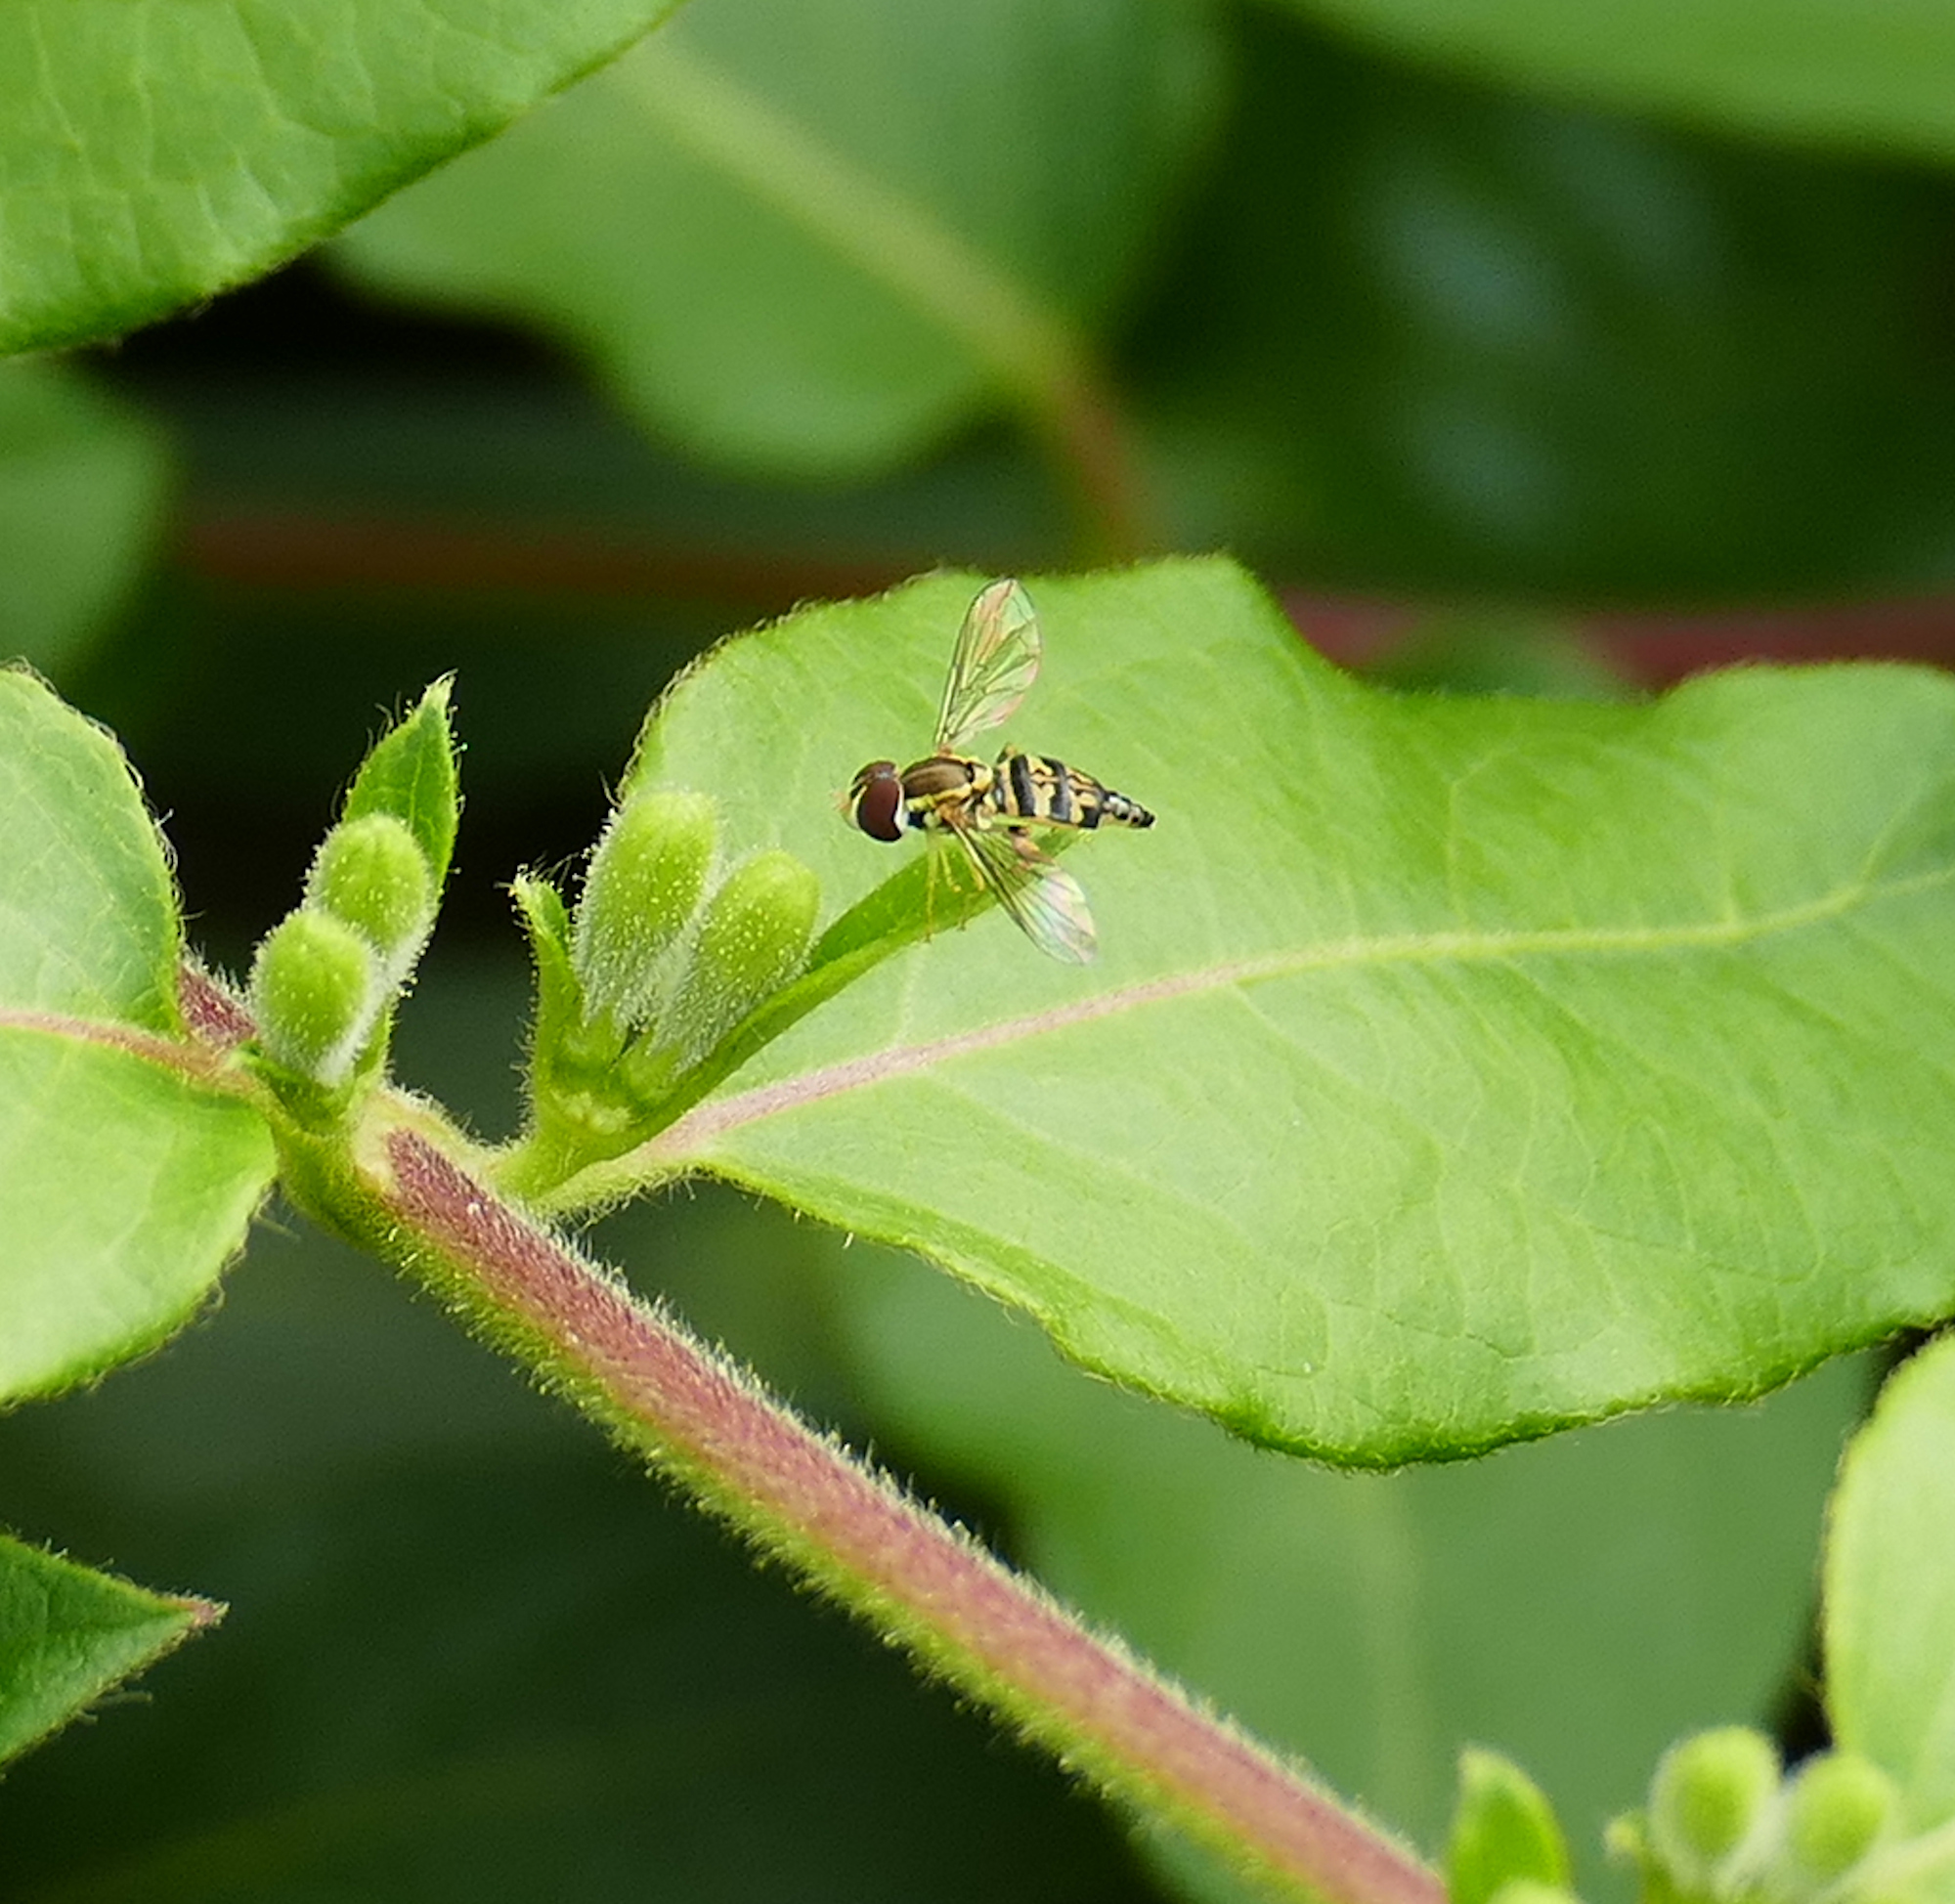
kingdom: Animalia
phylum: Arthropoda
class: Insecta
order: Diptera
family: Syrphidae
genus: Toxomerus
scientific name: Toxomerus geminatus
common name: Eastern calligrapher
